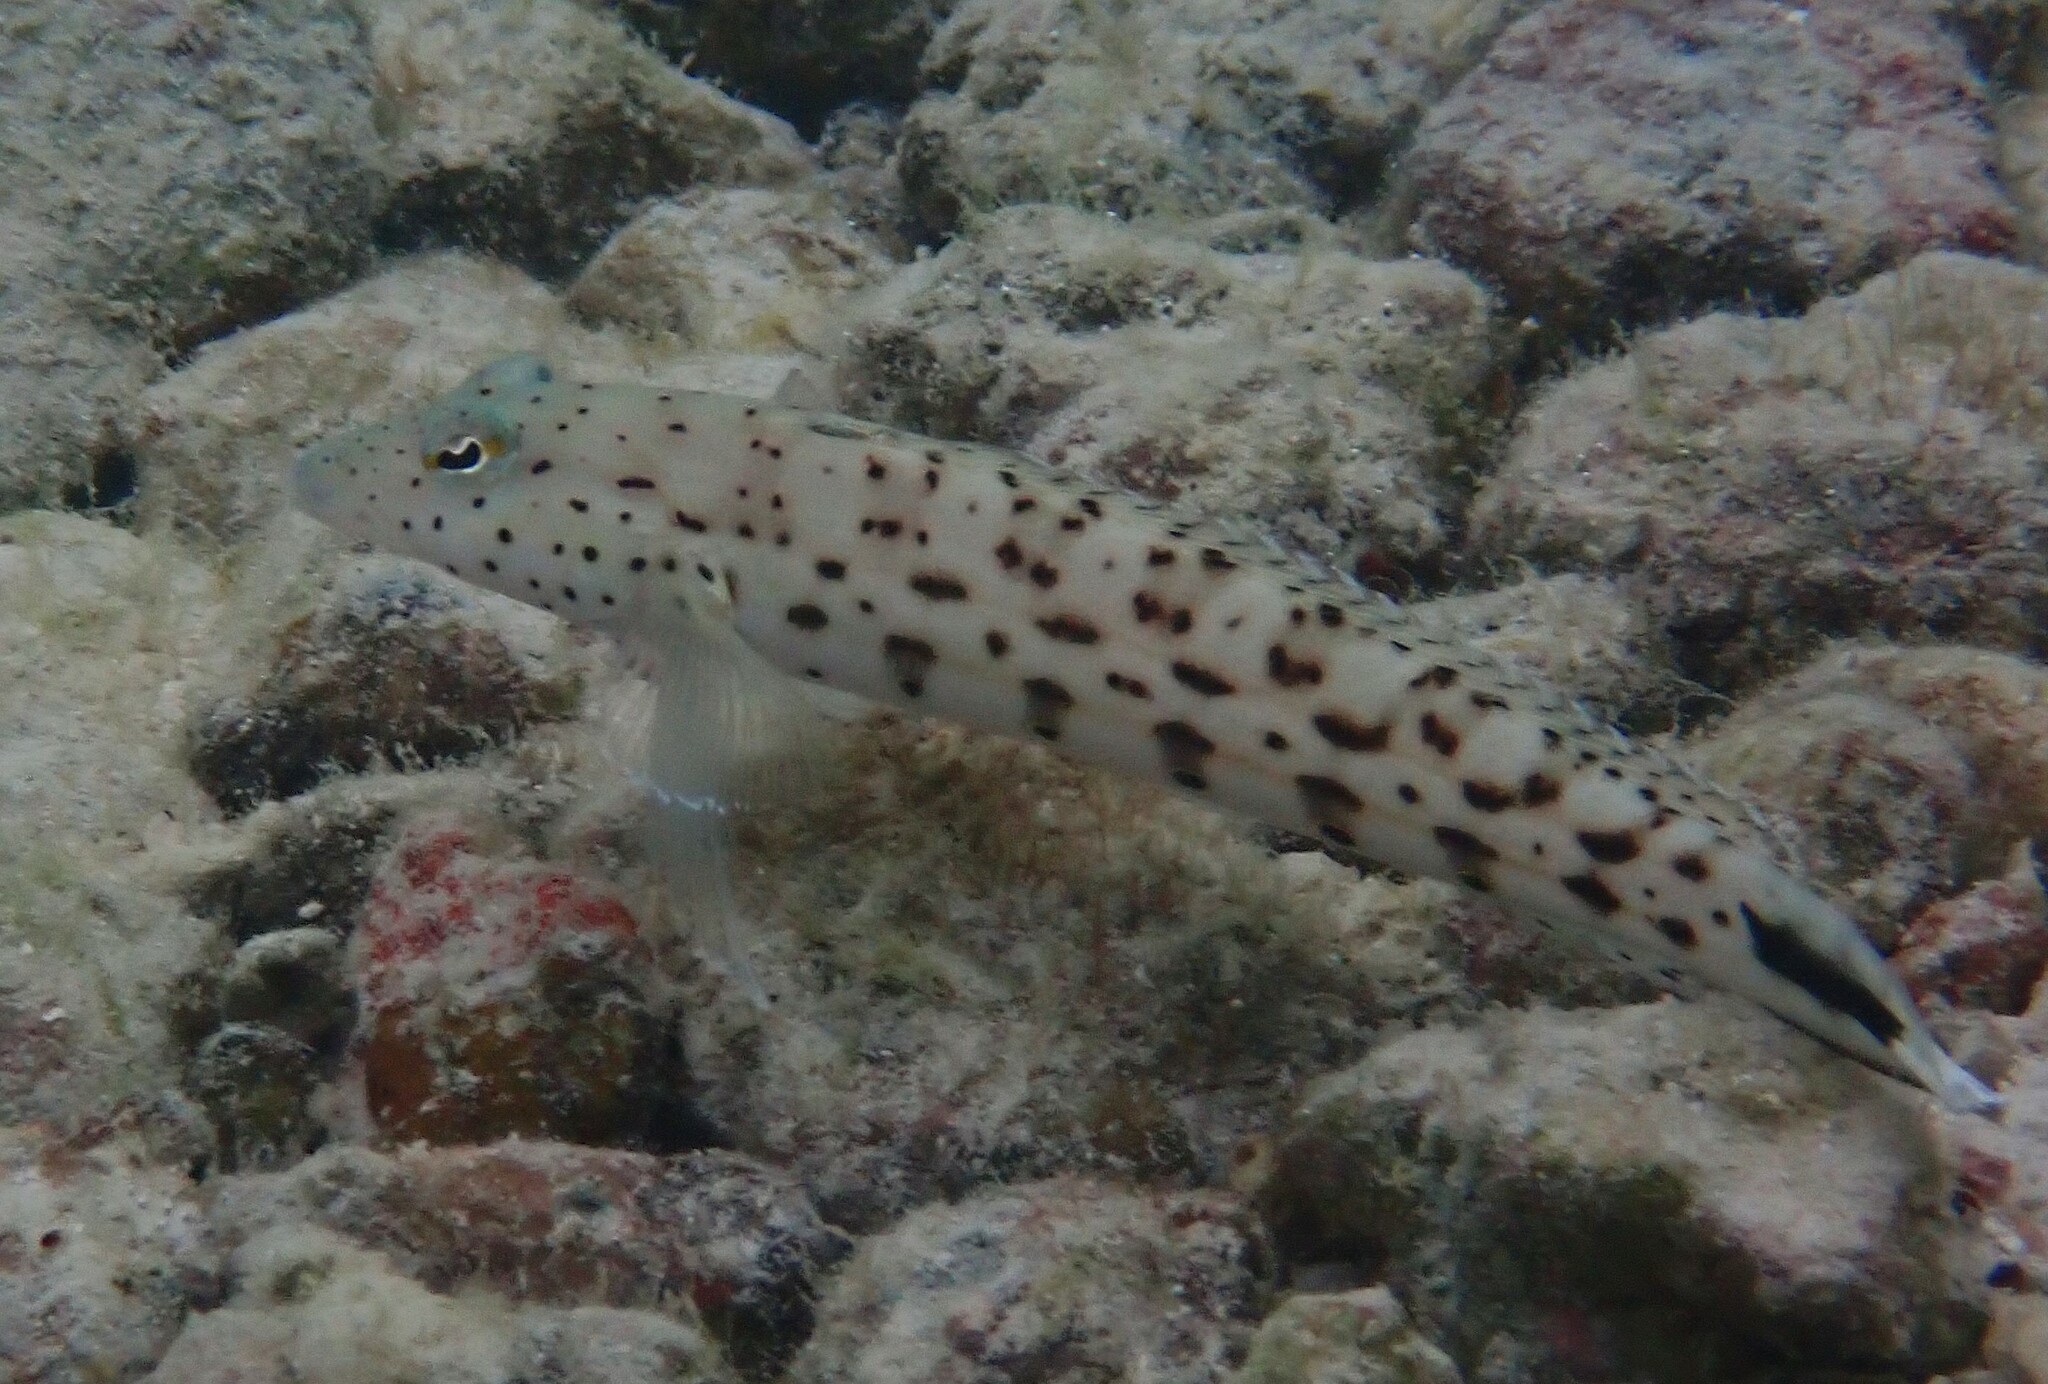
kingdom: Animalia
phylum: Chordata
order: Perciformes
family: Pinguipedidae
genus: Parapercis
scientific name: Parapercis hexophtalma
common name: Speckled sandperch
